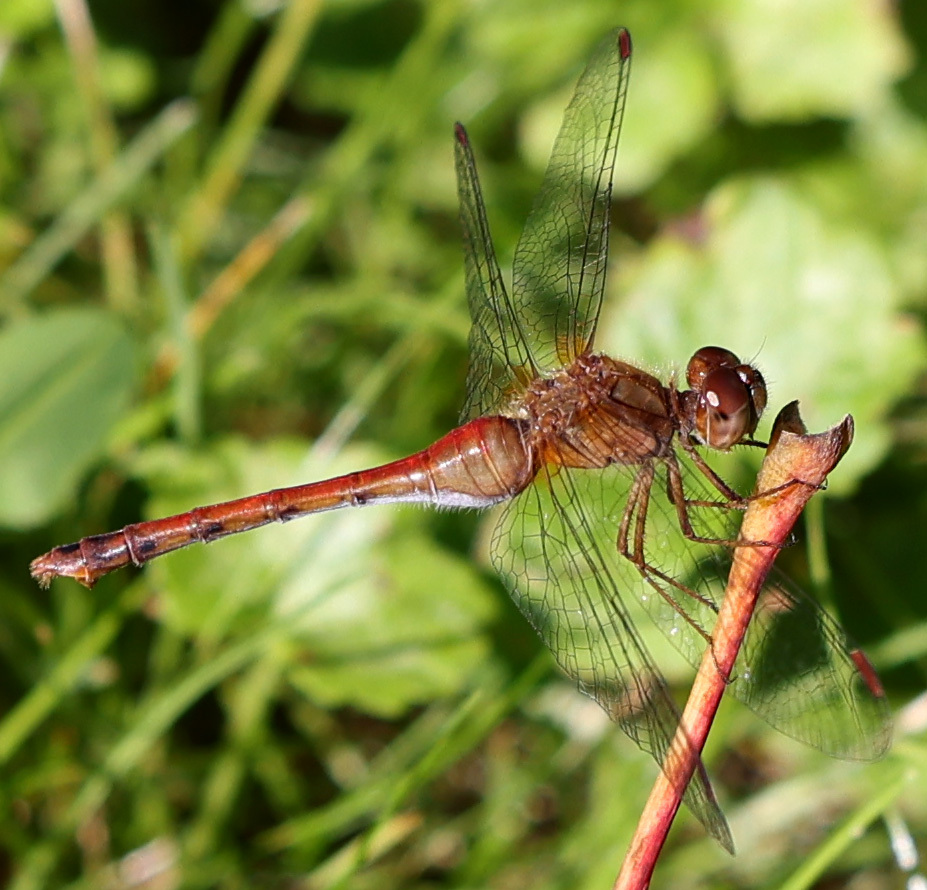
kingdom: Animalia
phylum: Arthropoda
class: Insecta
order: Odonata
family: Libellulidae
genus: Sympetrum
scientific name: Sympetrum vicinum
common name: Autumn meadowhawk
